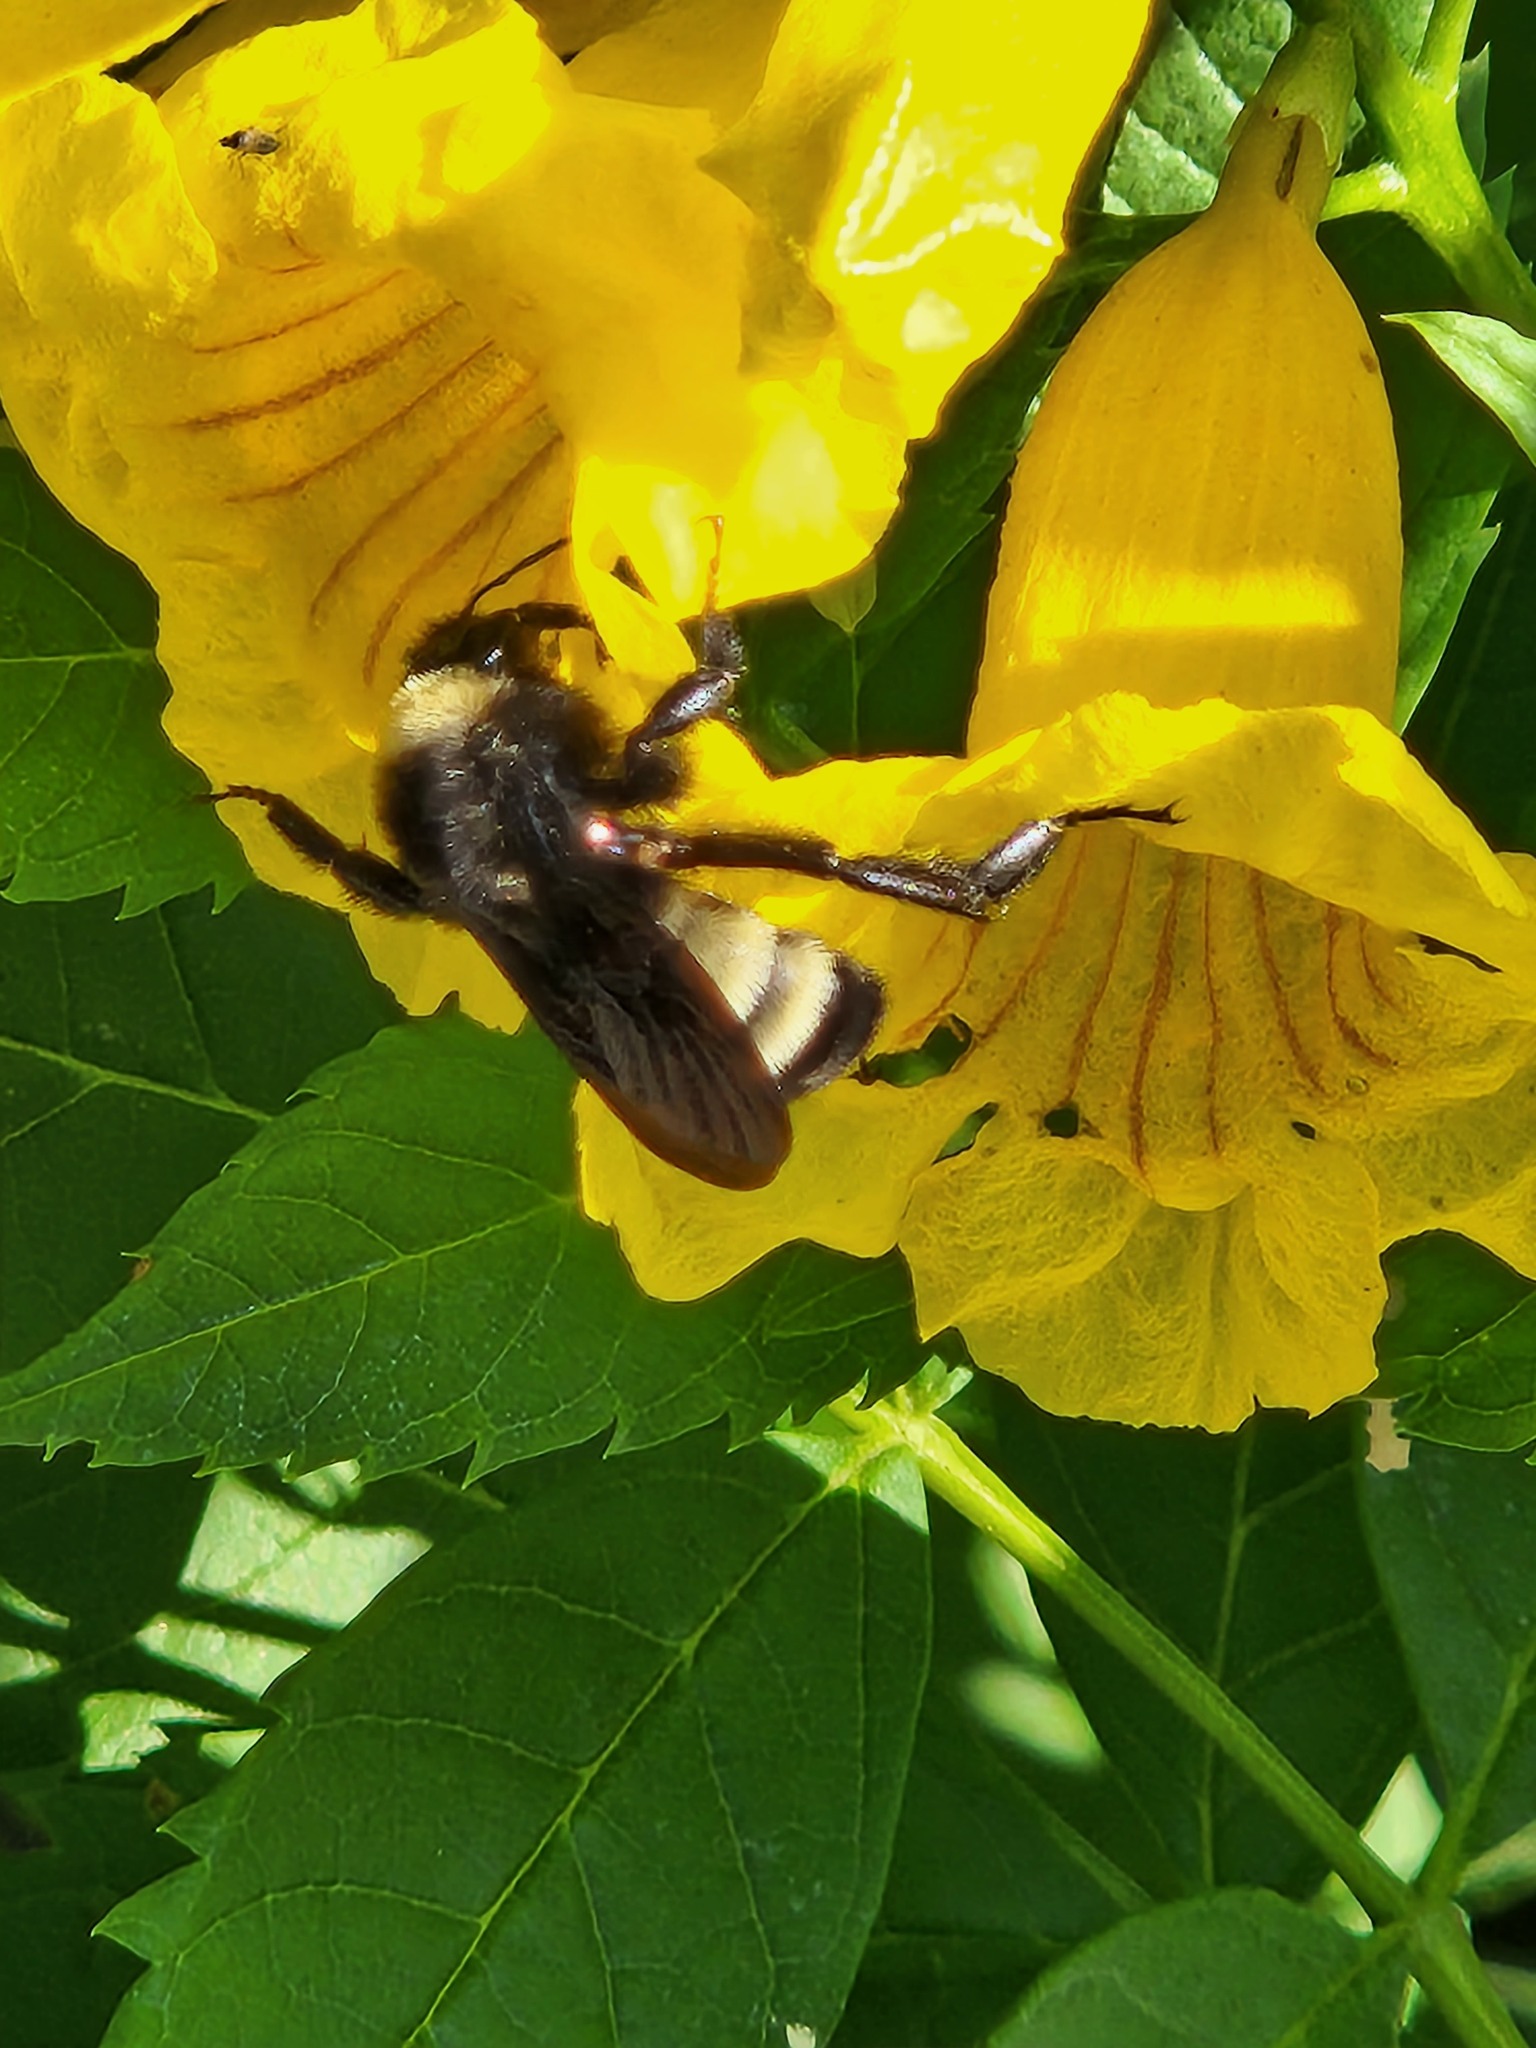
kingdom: Animalia
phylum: Arthropoda
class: Insecta
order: Hymenoptera
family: Apidae
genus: Bombus
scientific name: Bombus pensylvanicus
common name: Bumble bee
